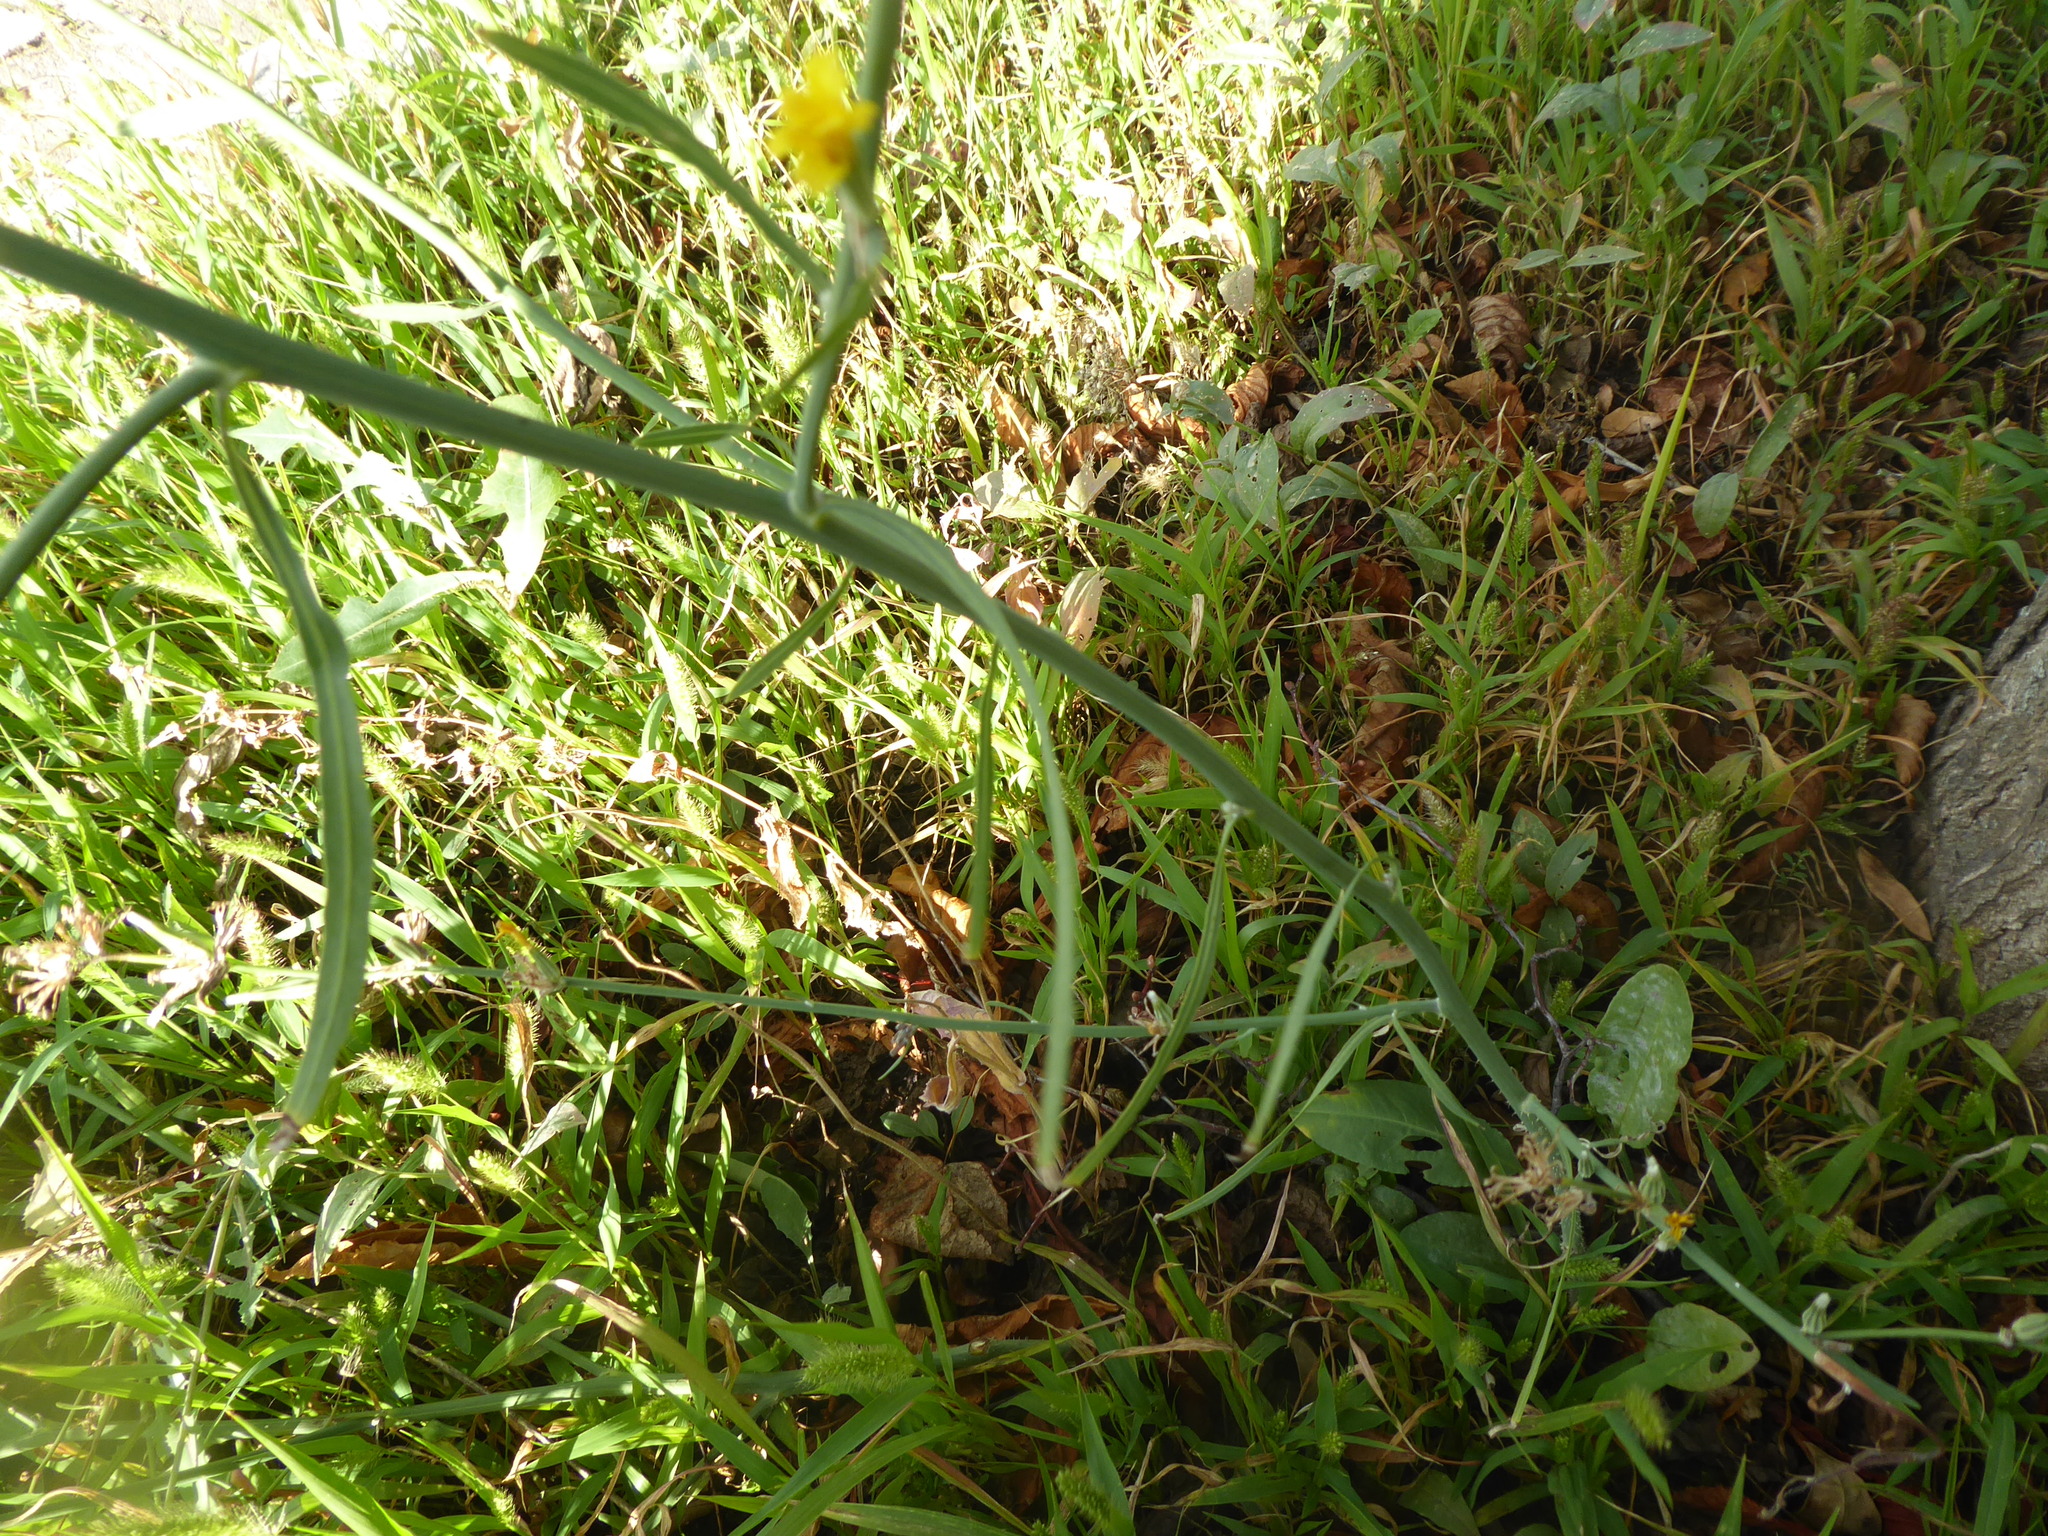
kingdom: Plantae
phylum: Tracheophyta
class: Magnoliopsida
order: Asterales
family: Asteraceae
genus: Chondrilla
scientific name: Chondrilla juncea
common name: Skeleton weed
